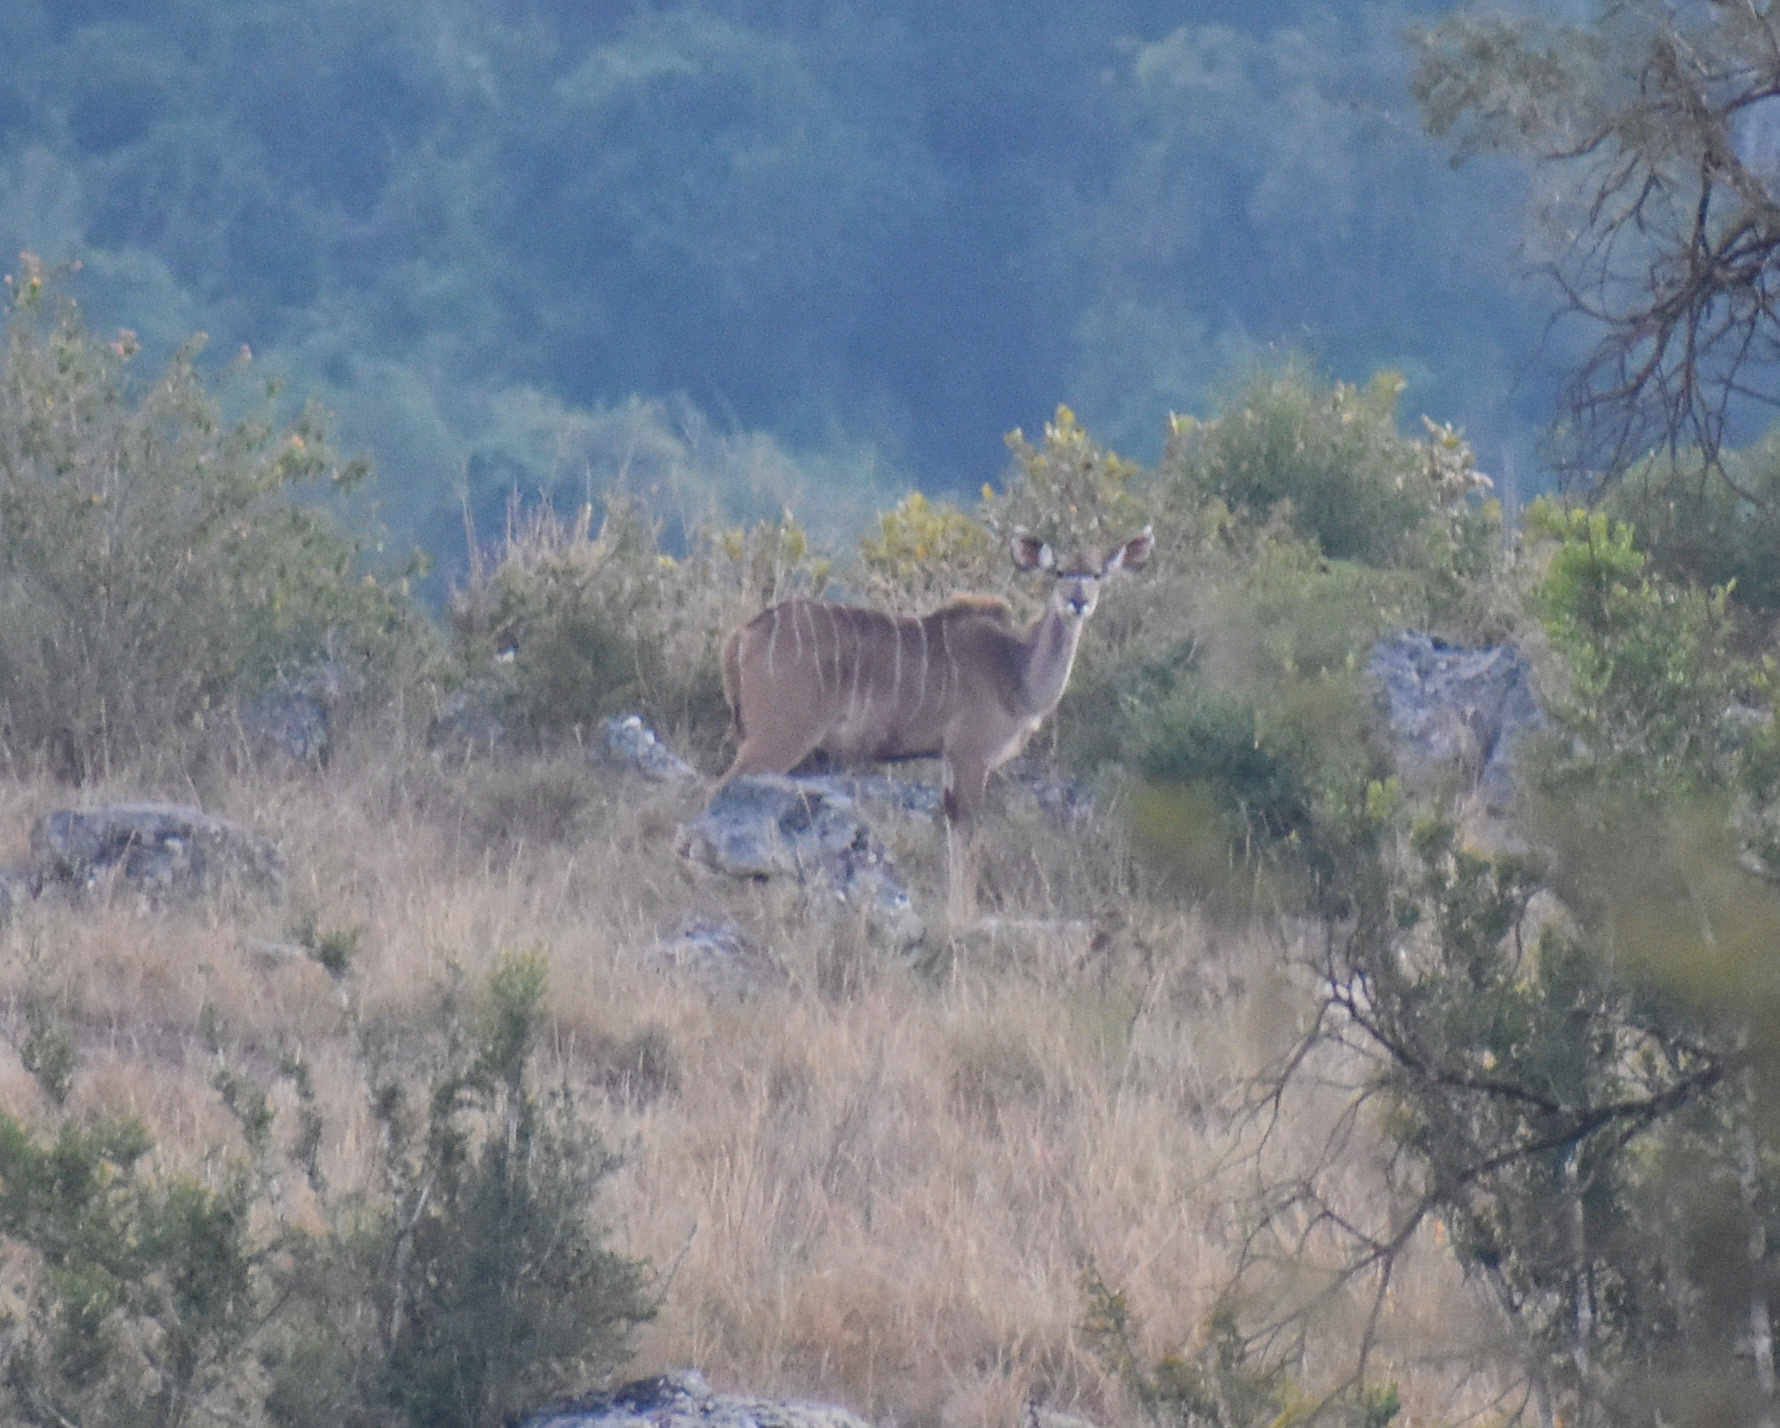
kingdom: Animalia
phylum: Chordata
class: Mammalia
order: Artiodactyla
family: Bovidae
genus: Tragelaphus
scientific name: Tragelaphus strepsiceros
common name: Greater kudu
